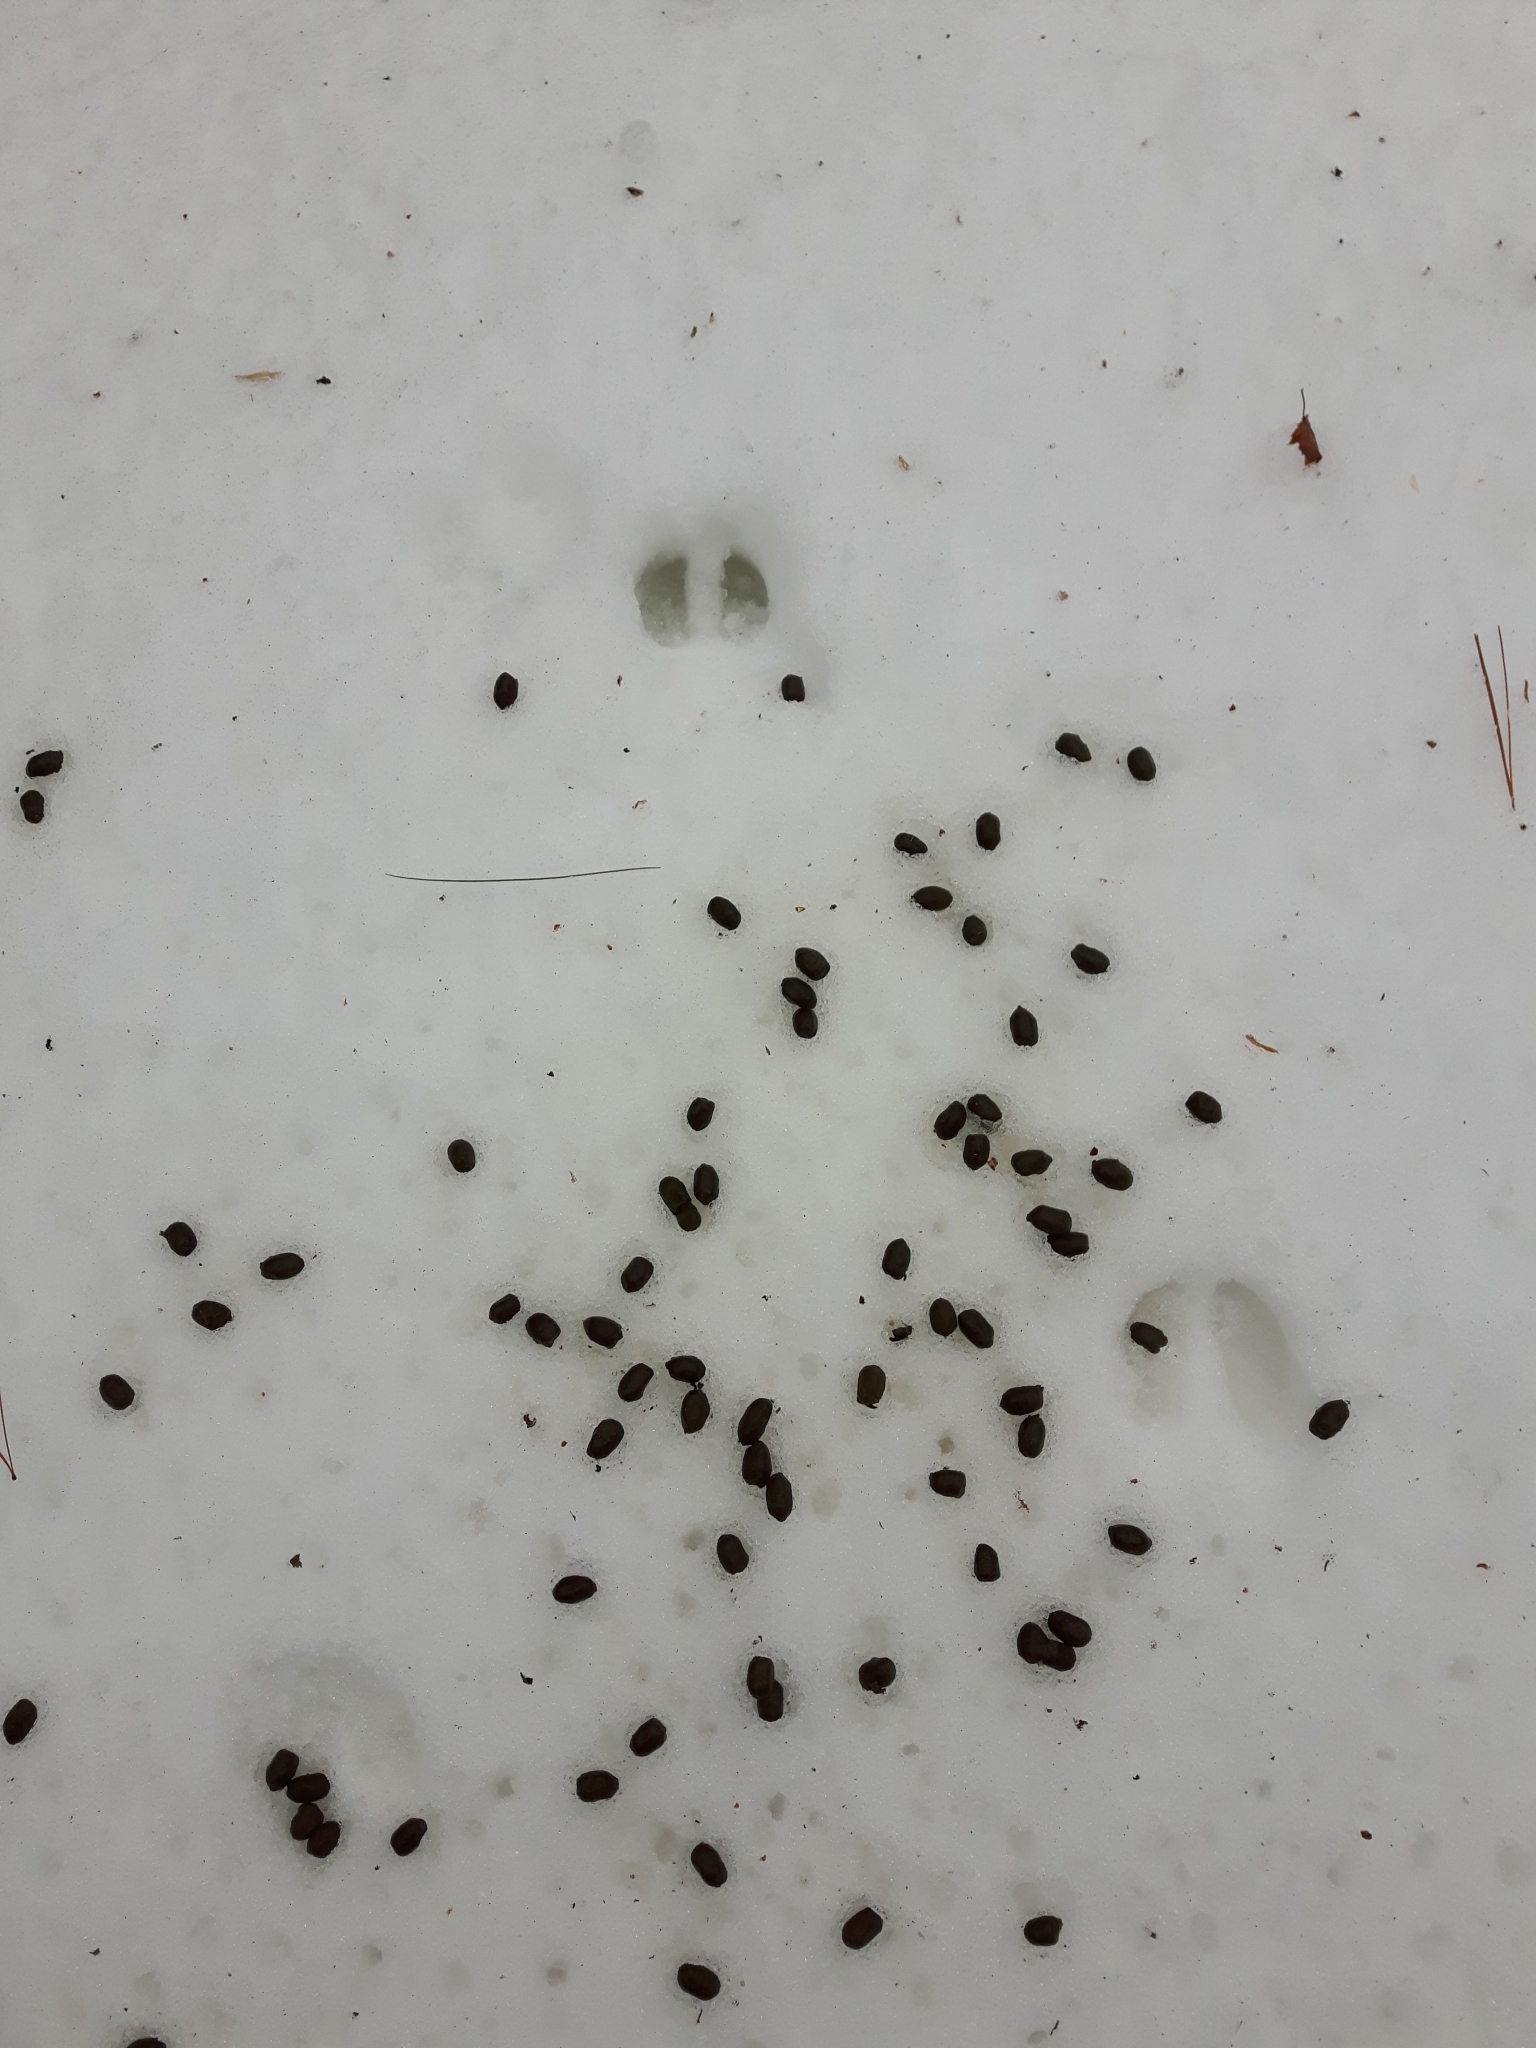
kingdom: Animalia
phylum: Chordata
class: Mammalia
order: Artiodactyla
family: Cervidae
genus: Odocoileus
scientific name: Odocoileus virginianus
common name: White-tailed deer
